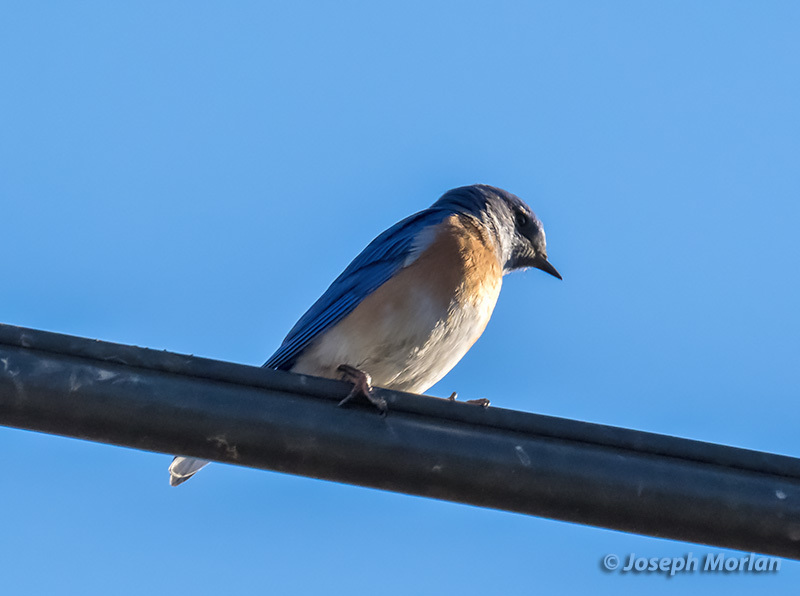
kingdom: Animalia
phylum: Chordata
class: Aves
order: Passeriformes
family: Turdidae
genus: Sialia
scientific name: Sialia mexicana
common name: Western bluebird
